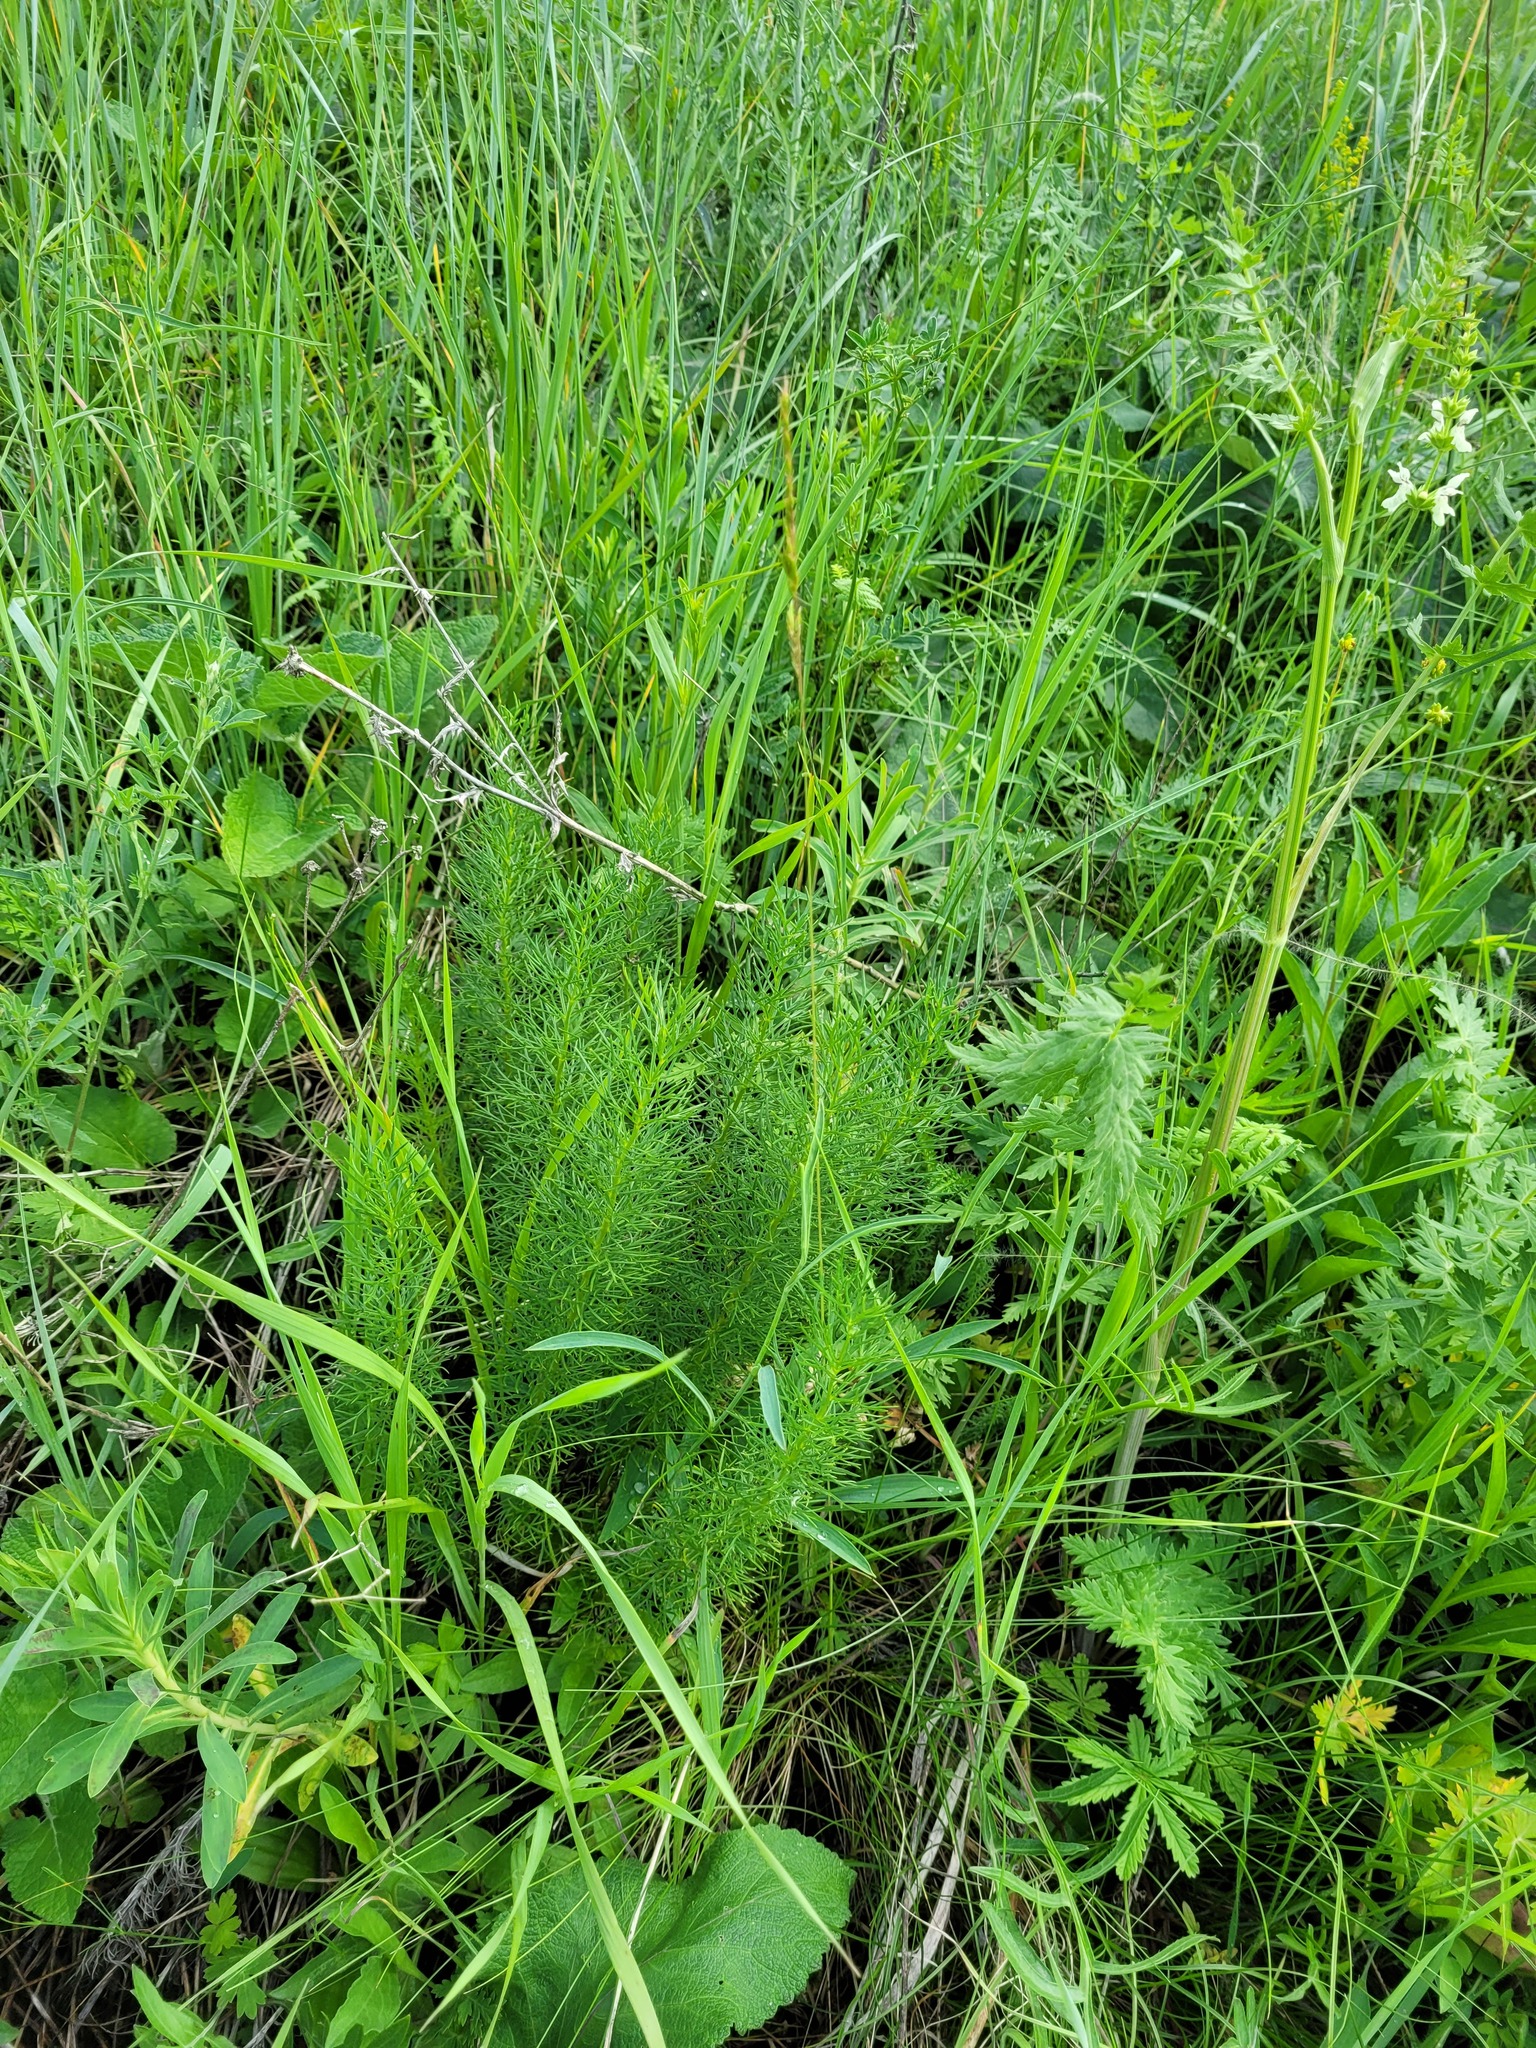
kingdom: Plantae
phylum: Tracheophyta
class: Magnoliopsida
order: Ranunculales
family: Ranunculaceae
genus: Adonis
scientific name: Adonis vernalis
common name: Yellow pheasants-eye
